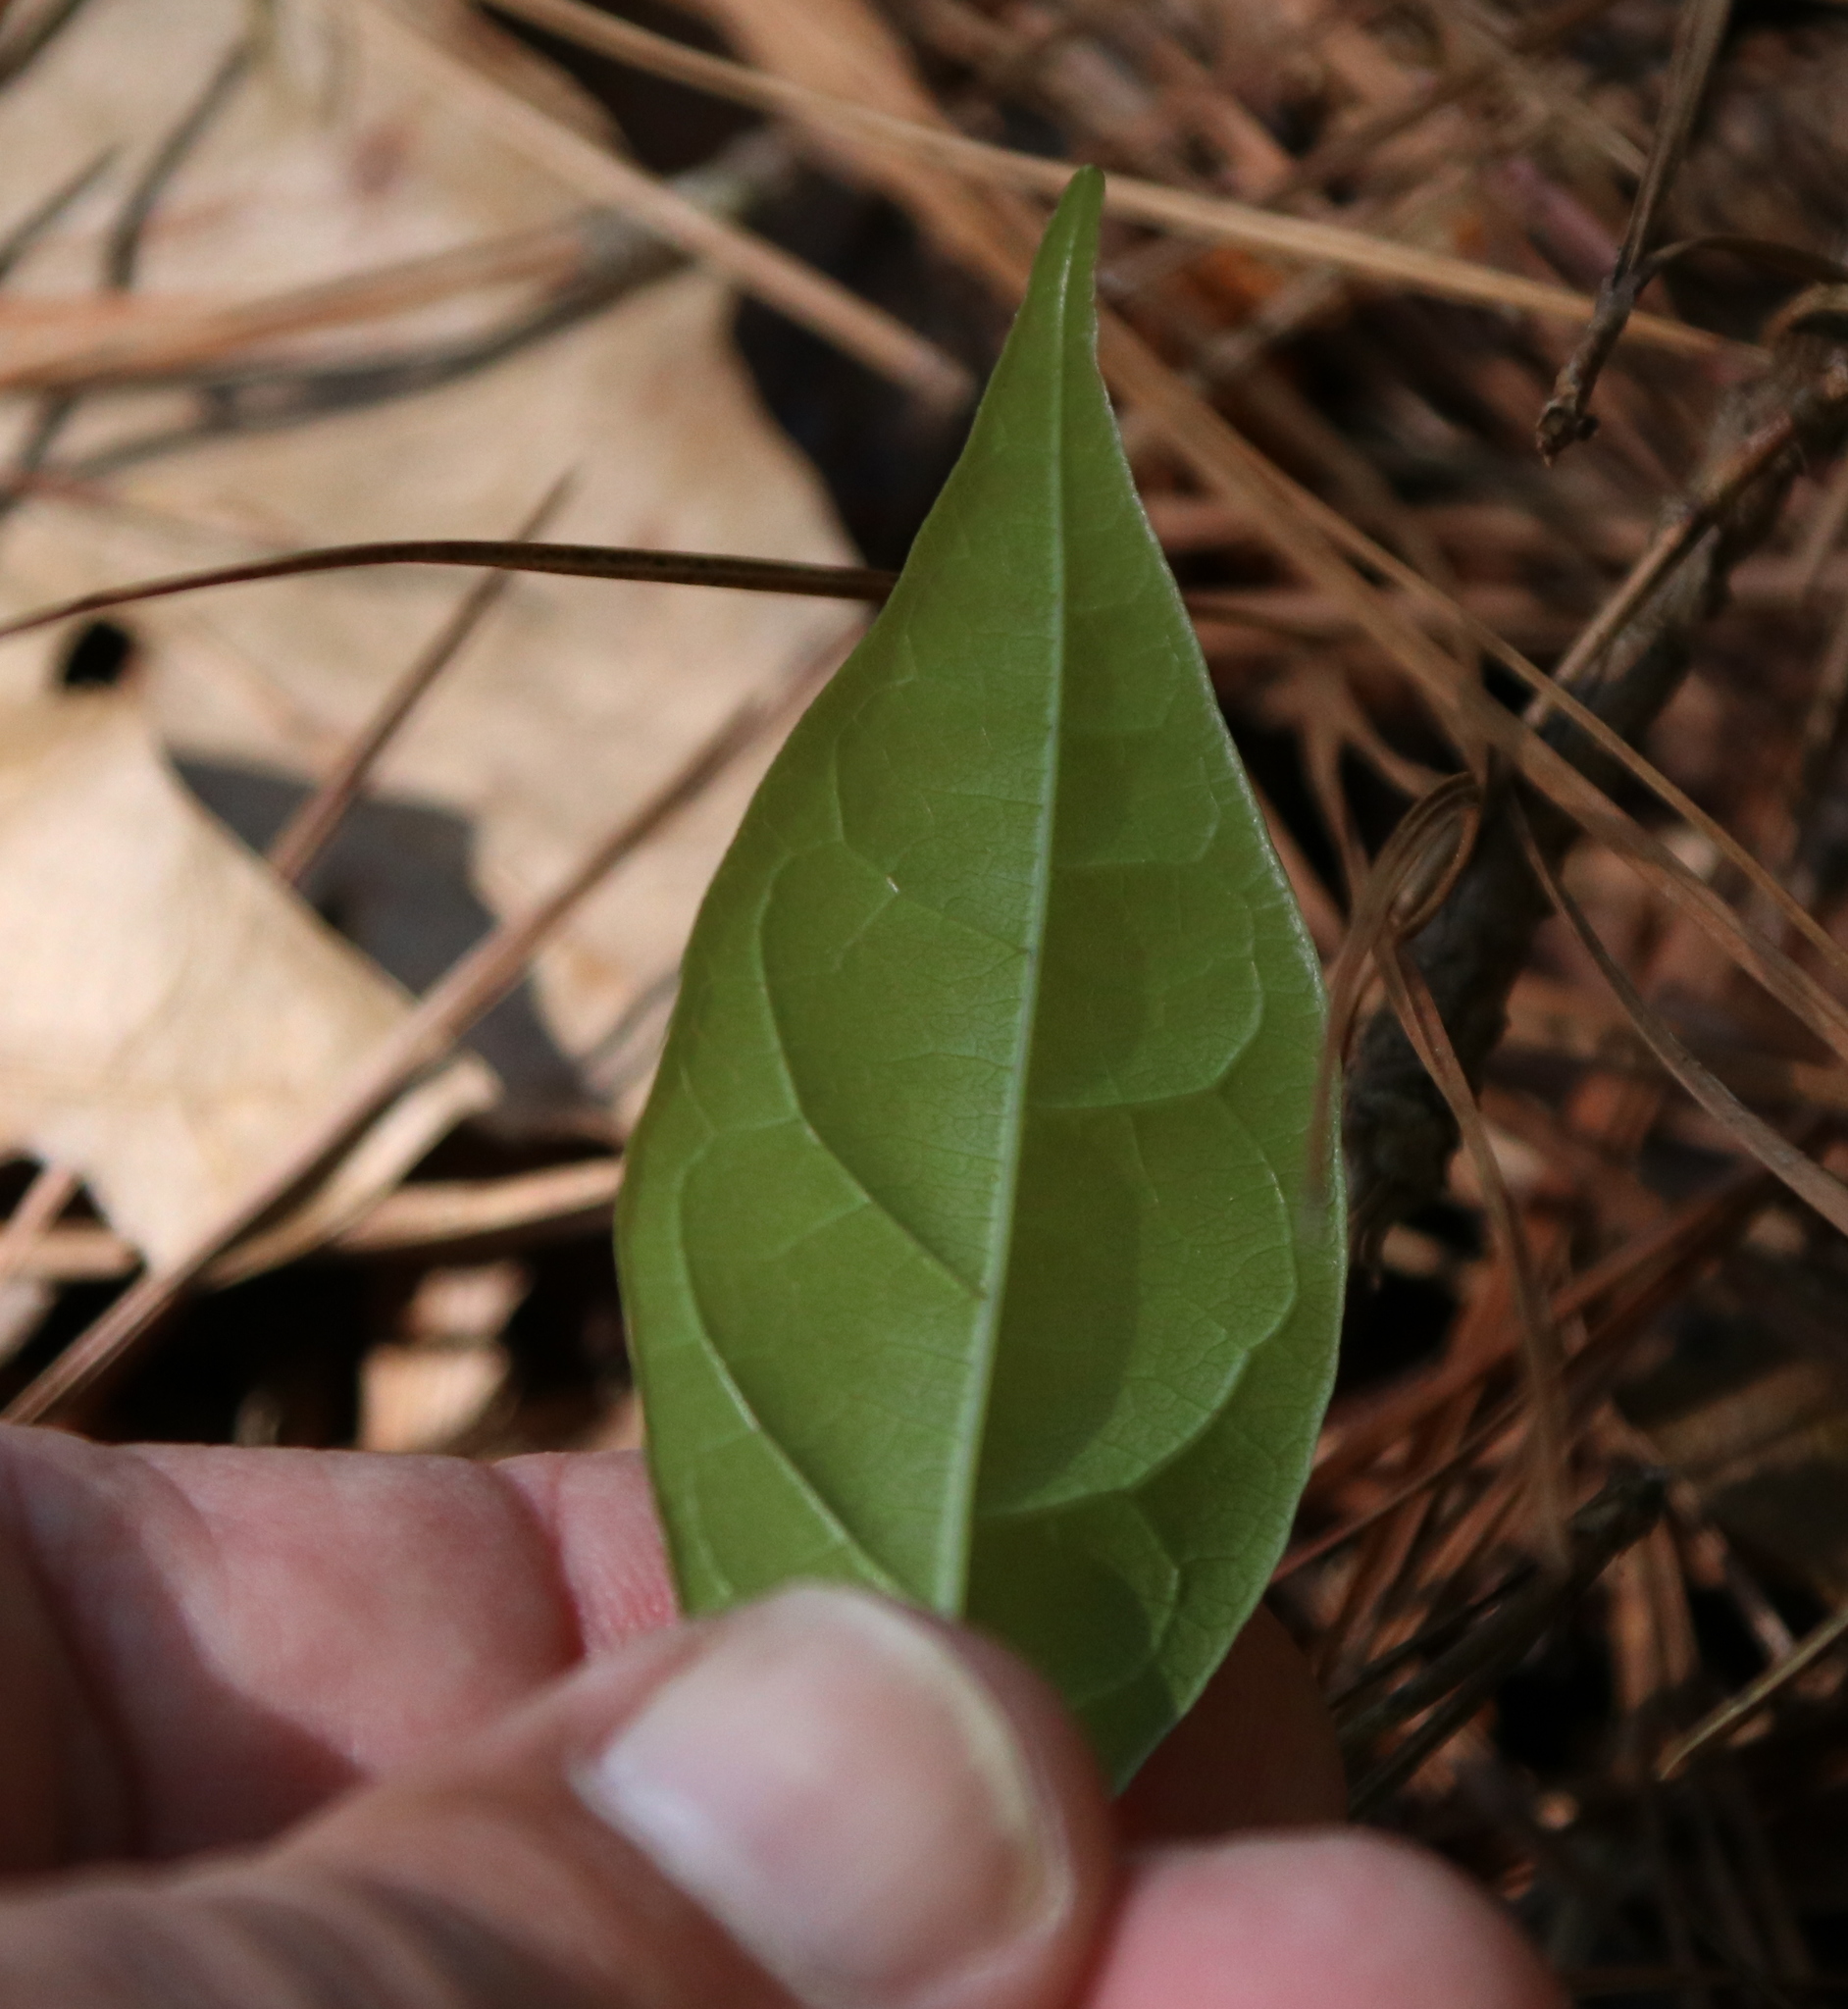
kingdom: Plantae
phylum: Tracheophyta
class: Magnoliopsida
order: Lamiales
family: Bignoniaceae
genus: Bignonia
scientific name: Bignonia capreolata
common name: Crossvine
